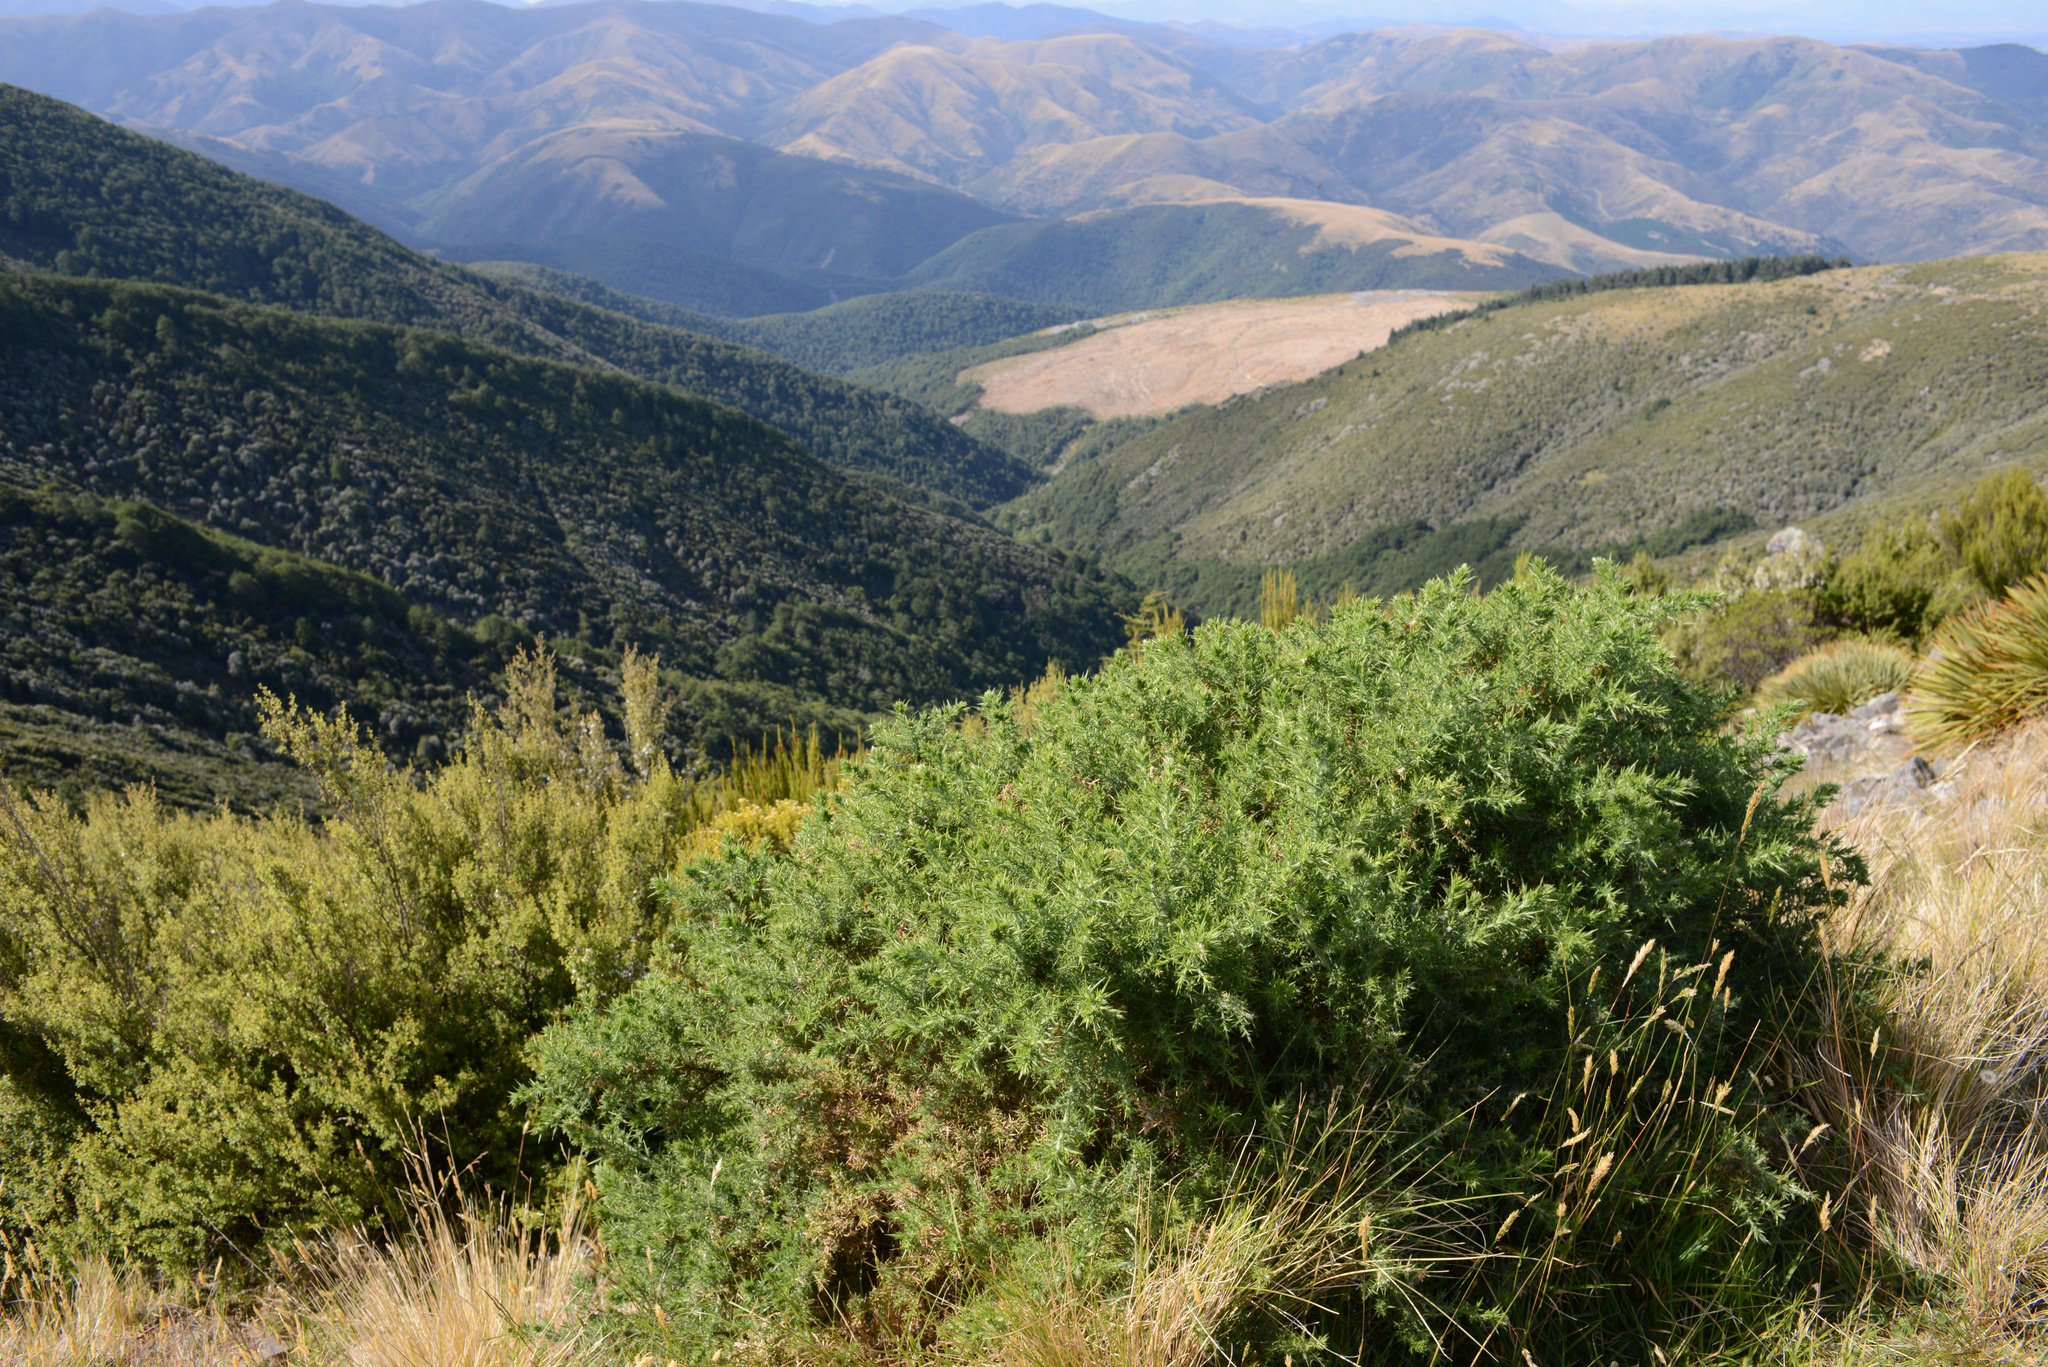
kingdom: Plantae
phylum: Tracheophyta
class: Magnoliopsida
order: Fabales
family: Fabaceae
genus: Ulex
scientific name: Ulex europaeus
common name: Common gorse
